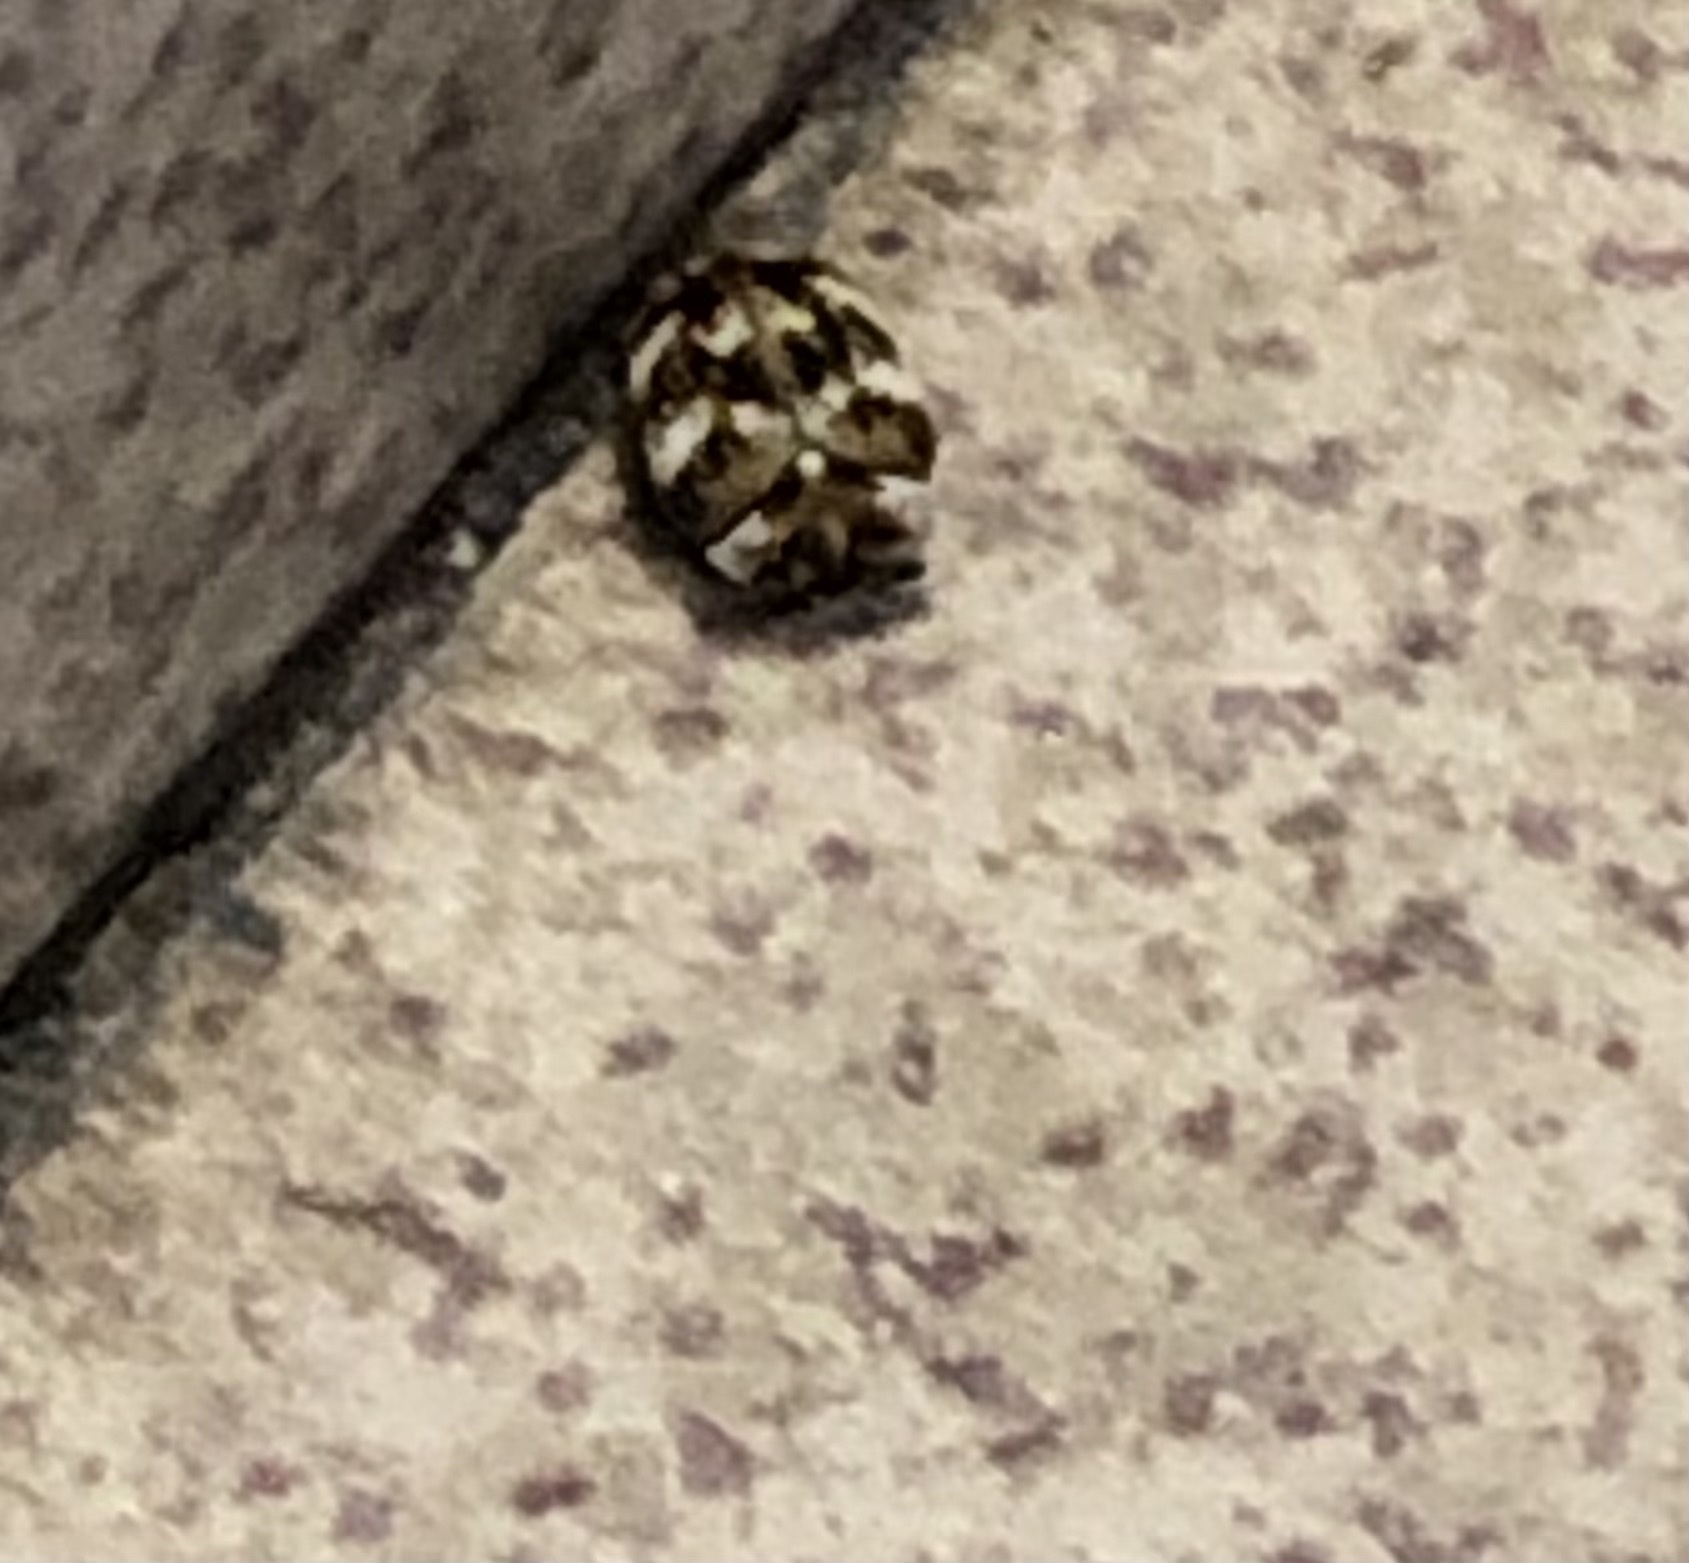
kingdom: Animalia
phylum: Arthropoda
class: Insecta
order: Coleoptera
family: Dermestidae
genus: Anthrenus
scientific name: Anthrenus verbasci
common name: Varied carpet beetle
